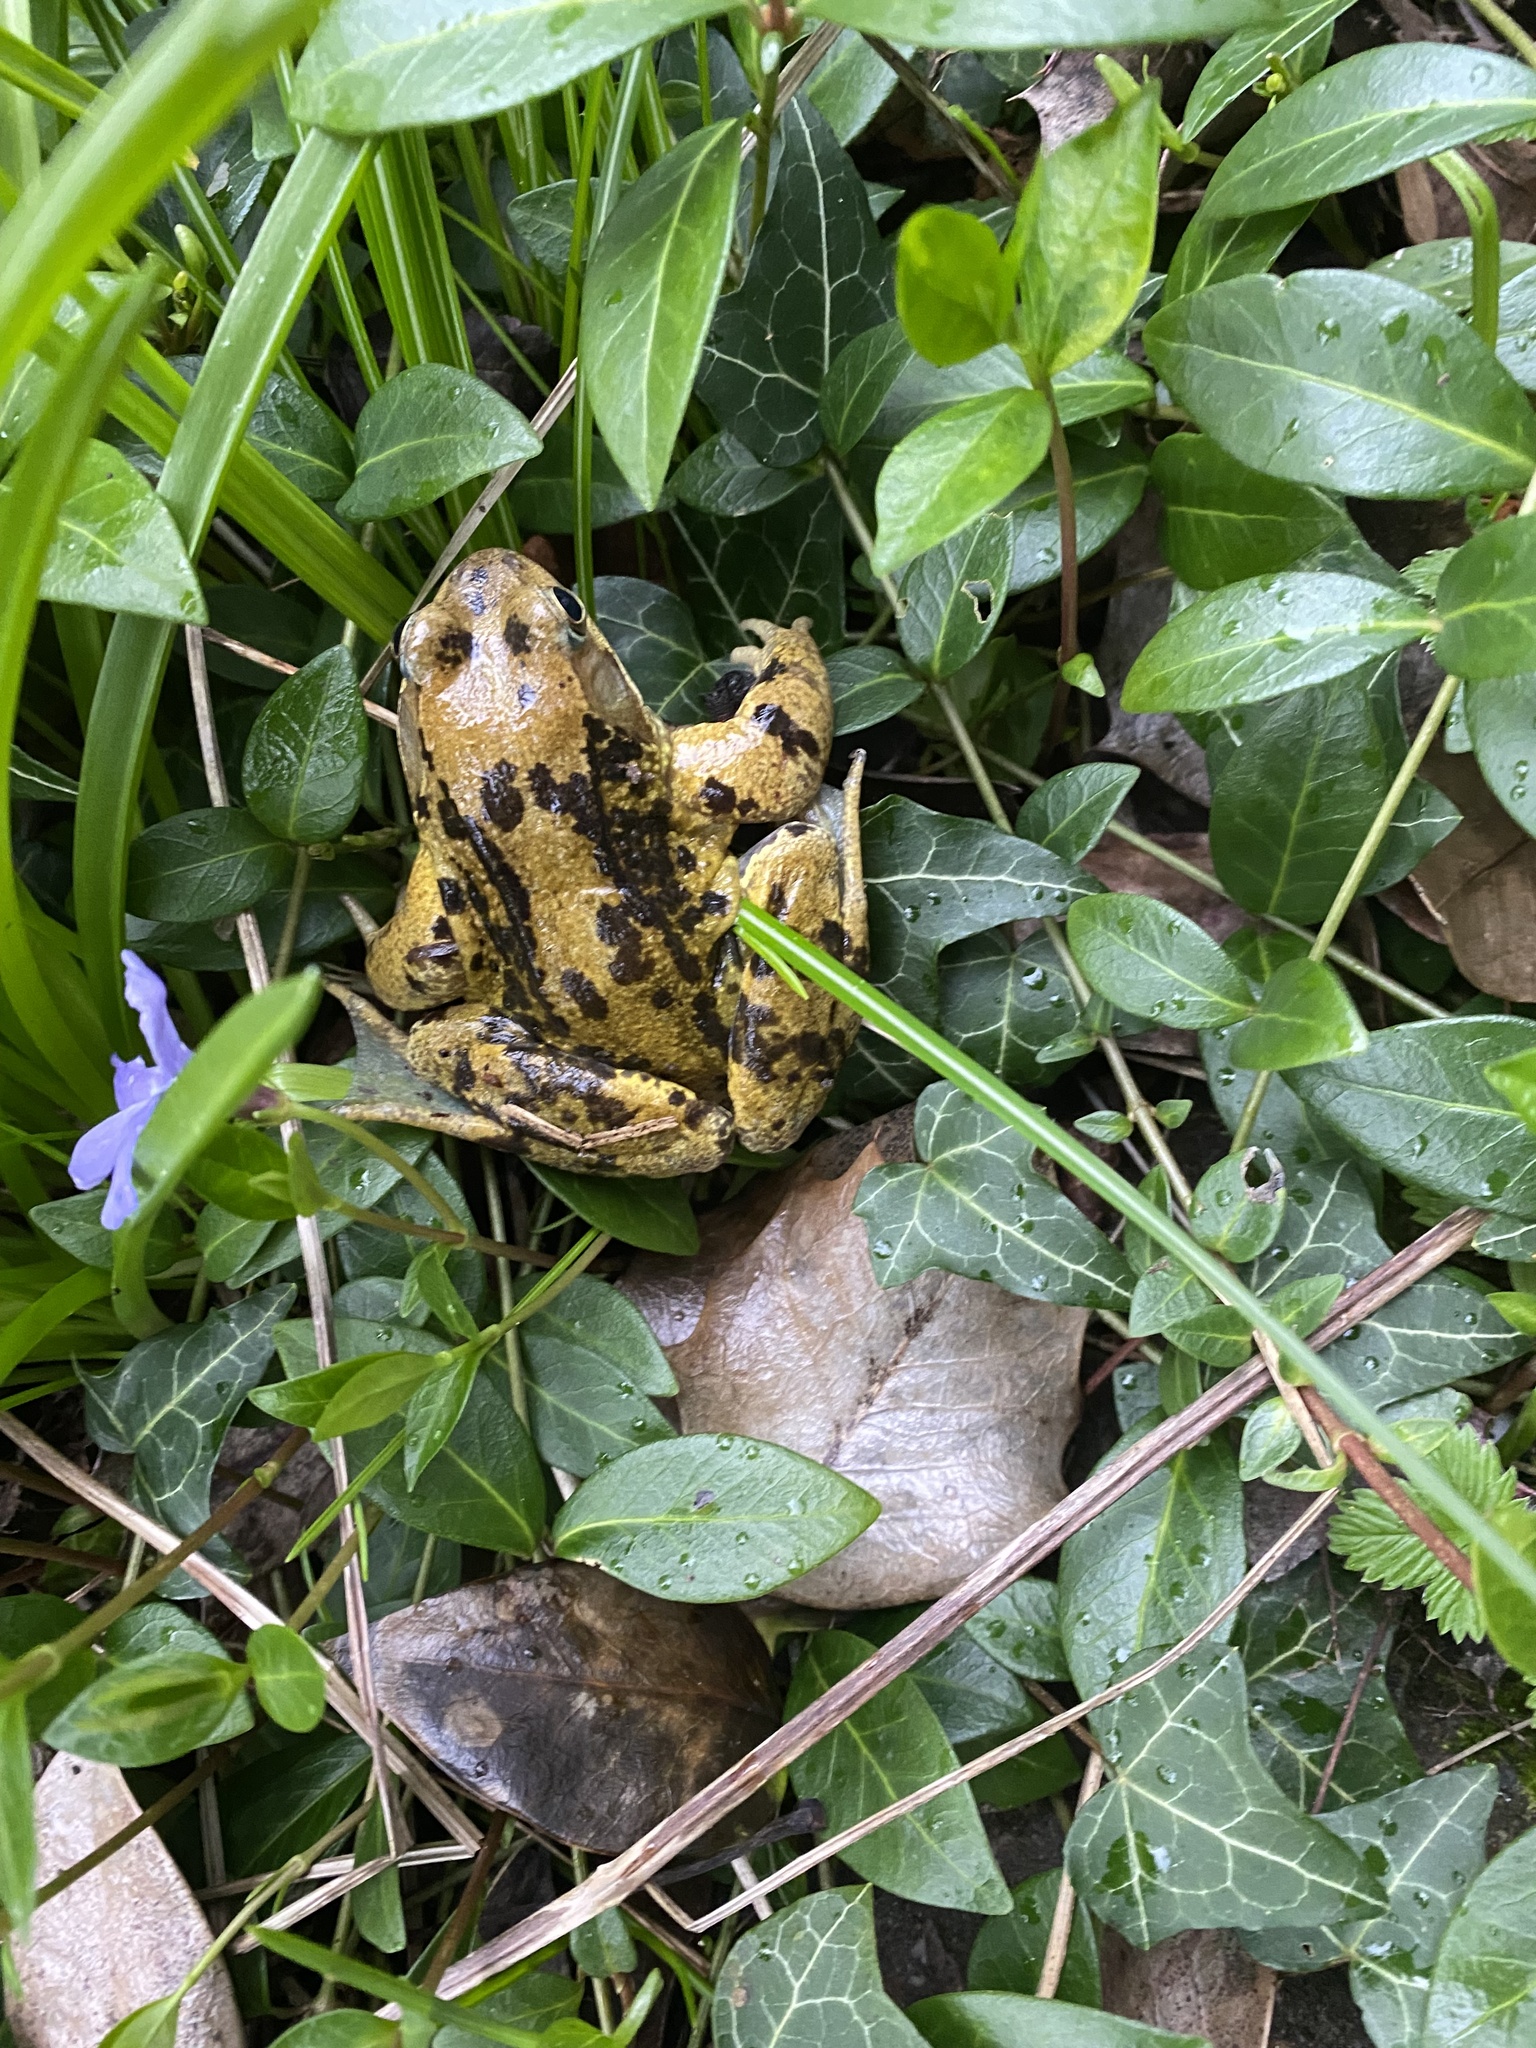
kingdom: Animalia
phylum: Chordata
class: Amphibia
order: Anura
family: Ranidae
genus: Rana
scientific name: Rana temporaria
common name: Common frog
